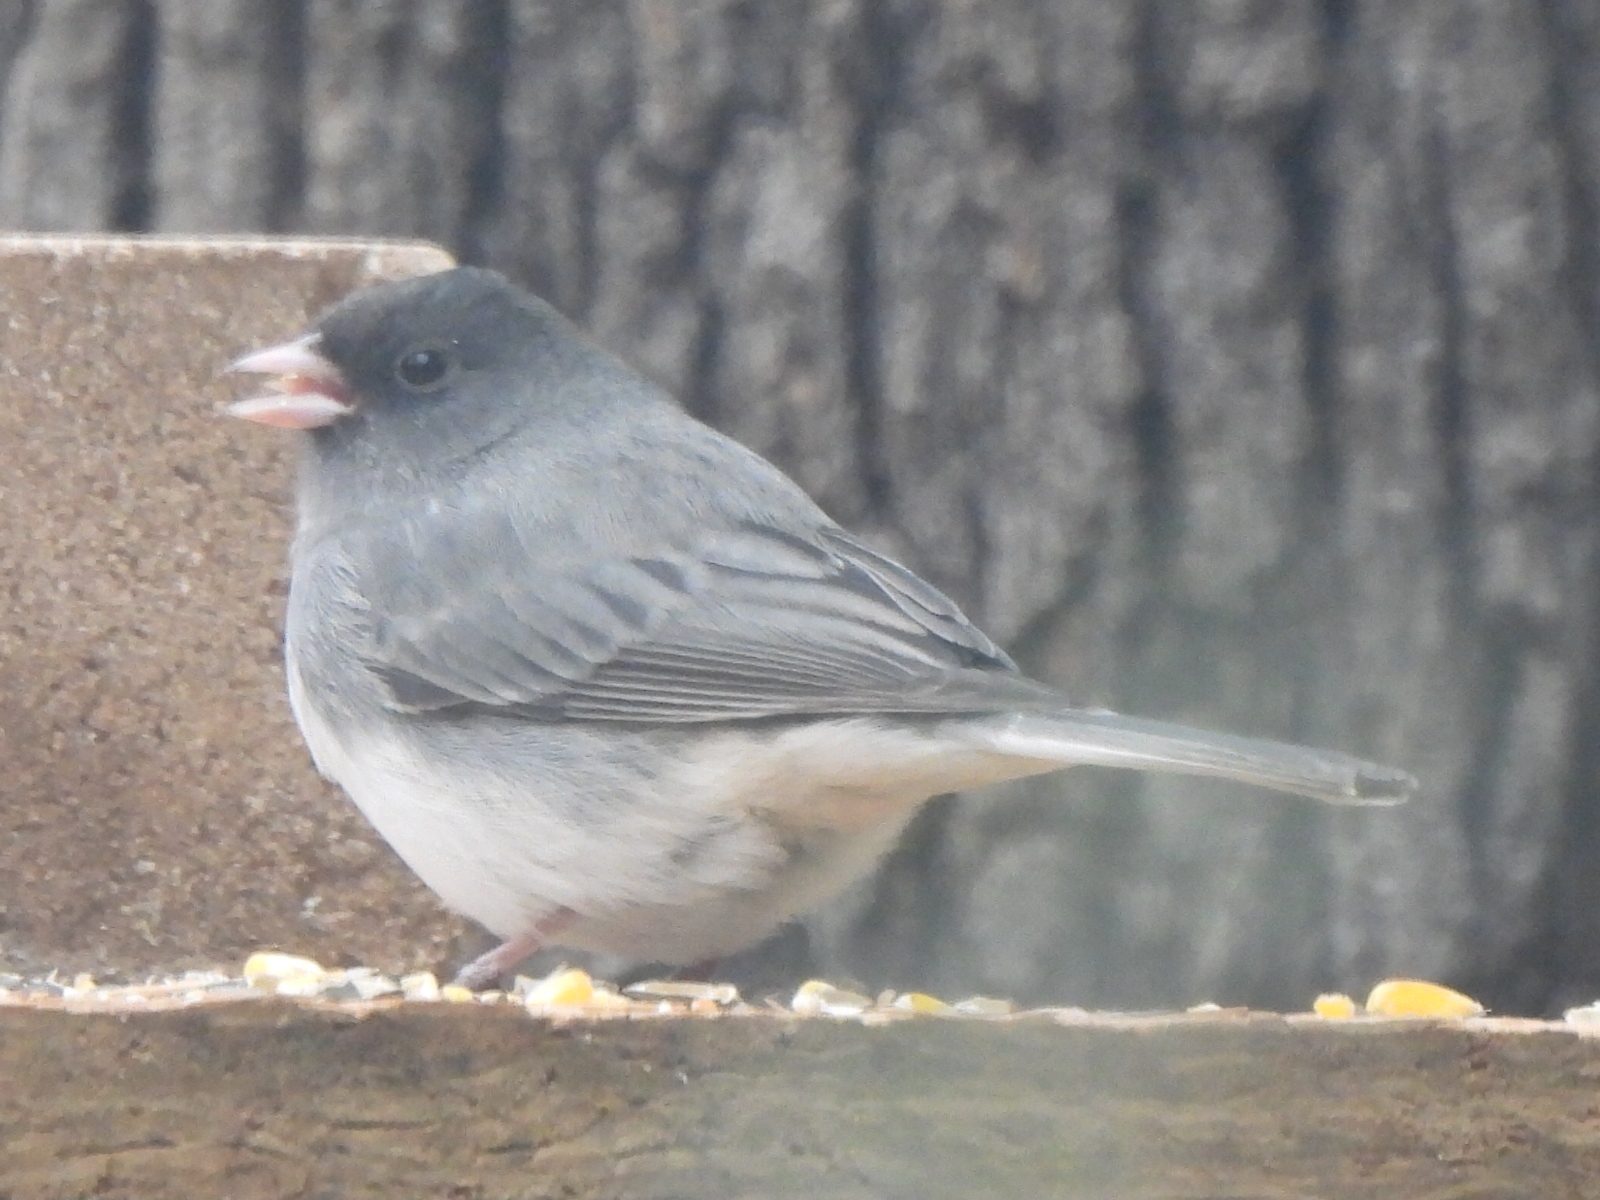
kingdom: Animalia
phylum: Chordata
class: Aves
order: Passeriformes
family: Passerellidae
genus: Junco
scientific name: Junco hyemalis
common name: Dark-eyed junco
